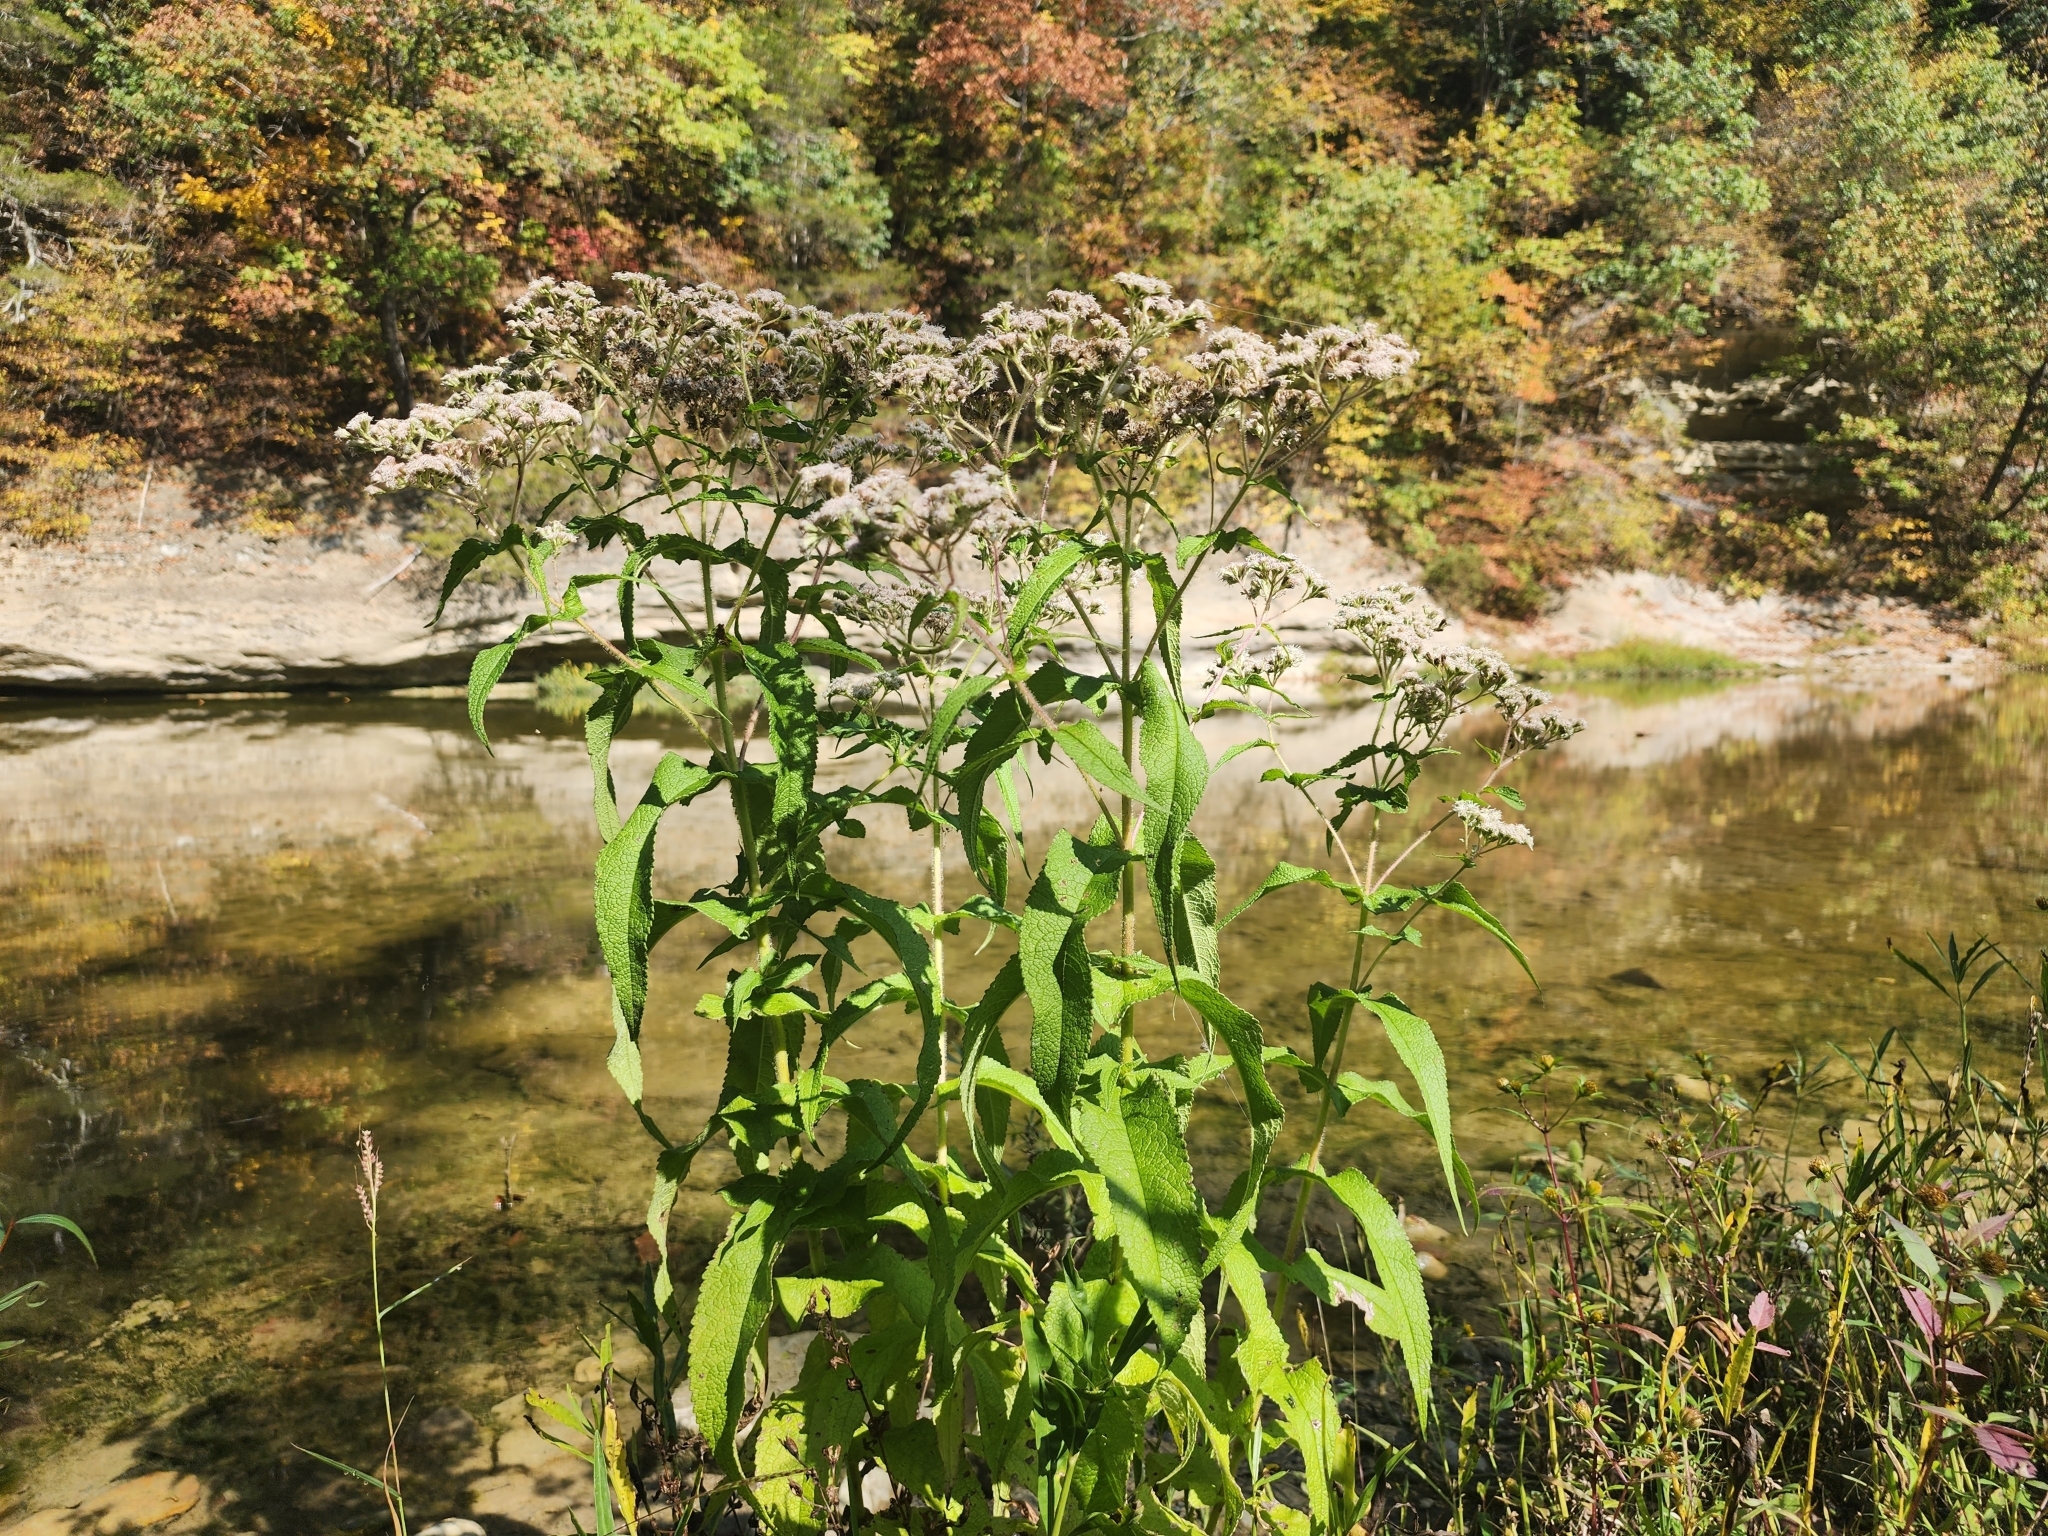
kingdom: Plantae
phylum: Tracheophyta
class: Magnoliopsida
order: Asterales
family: Asteraceae
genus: Eupatorium
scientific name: Eupatorium perfoliatum
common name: Boneset
